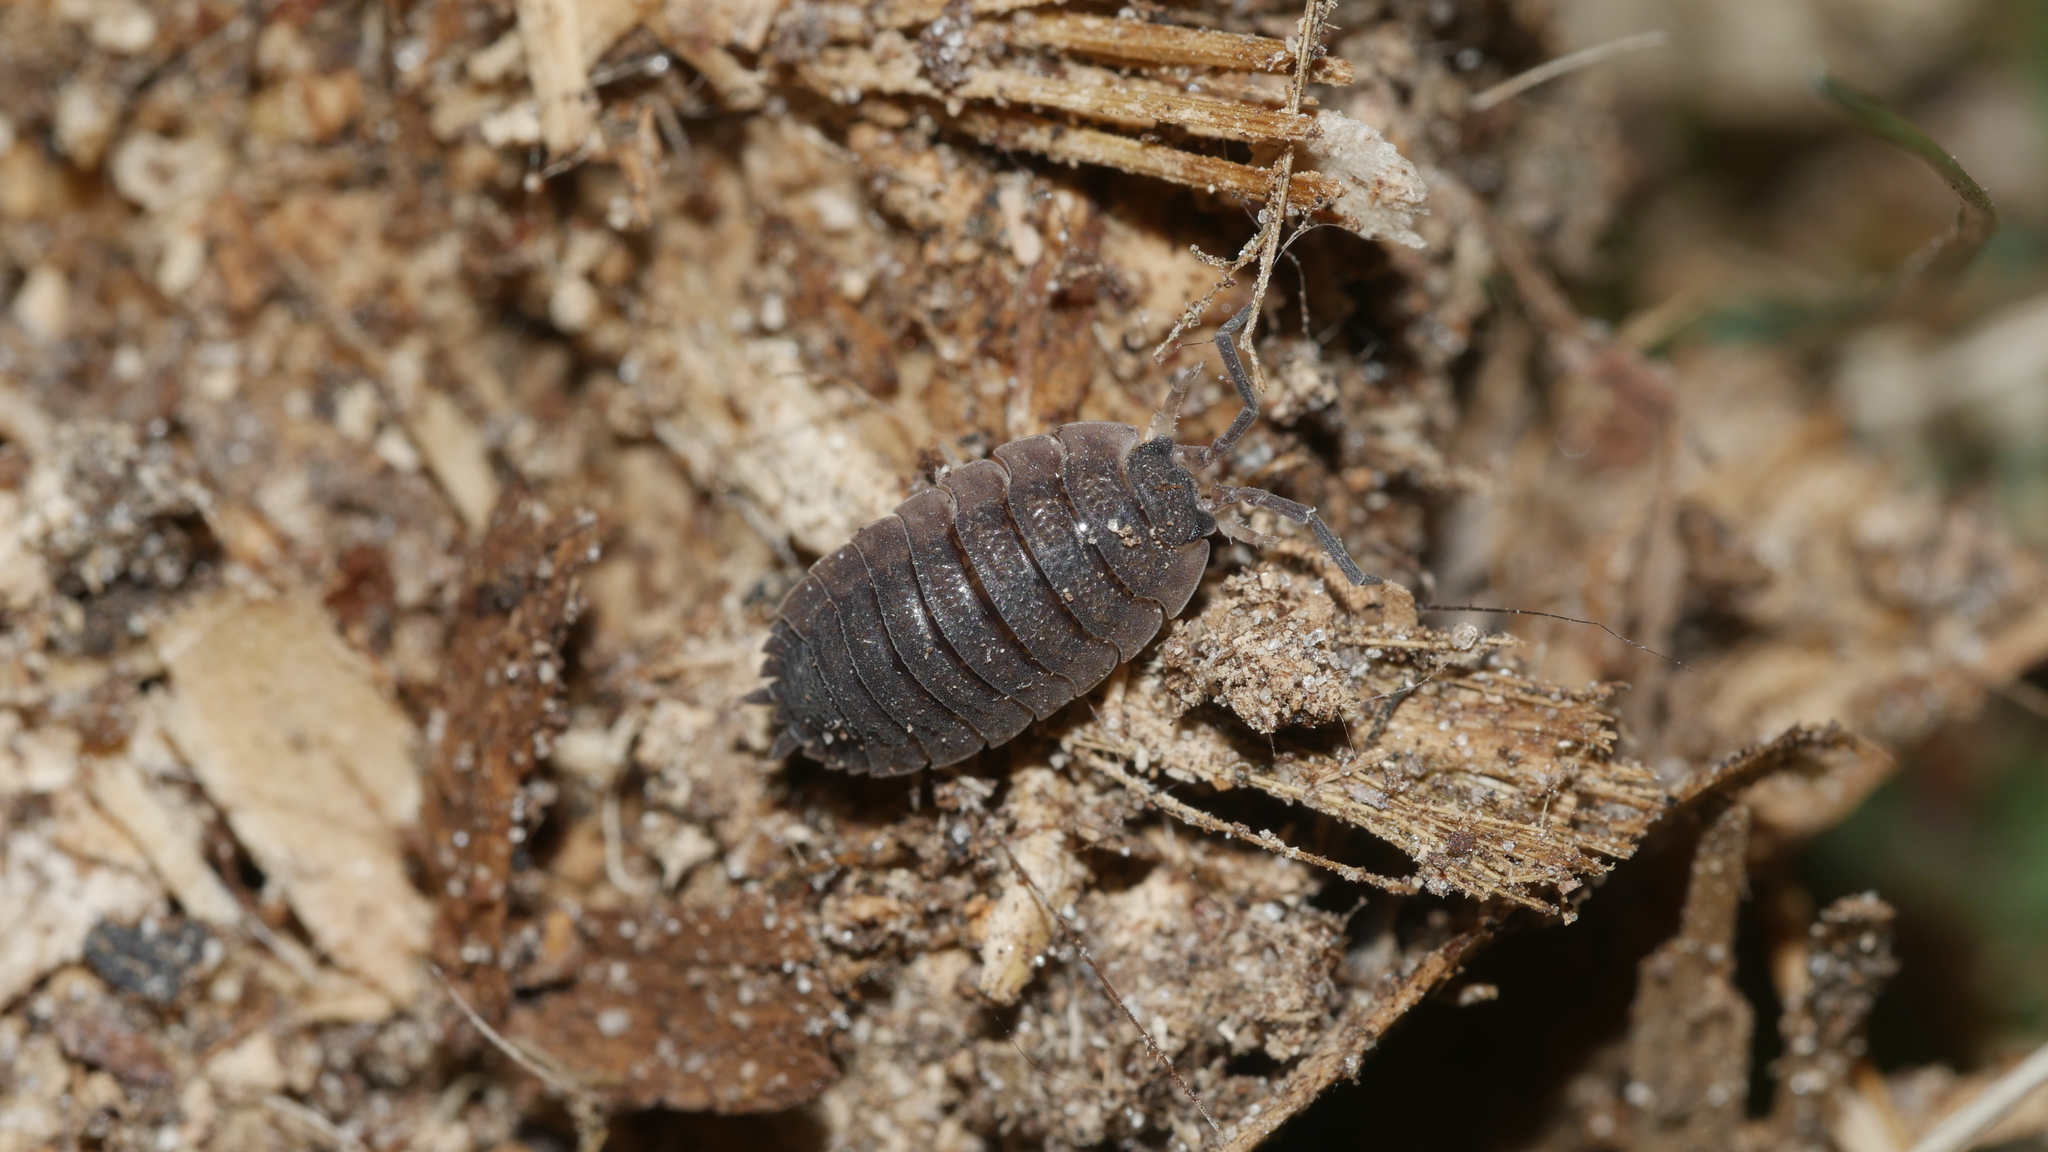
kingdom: Animalia
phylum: Arthropoda
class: Malacostraca
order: Isopoda
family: Porcellionidae
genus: Porcellio
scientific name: Porcellio scaber
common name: Common rough woodlouse
